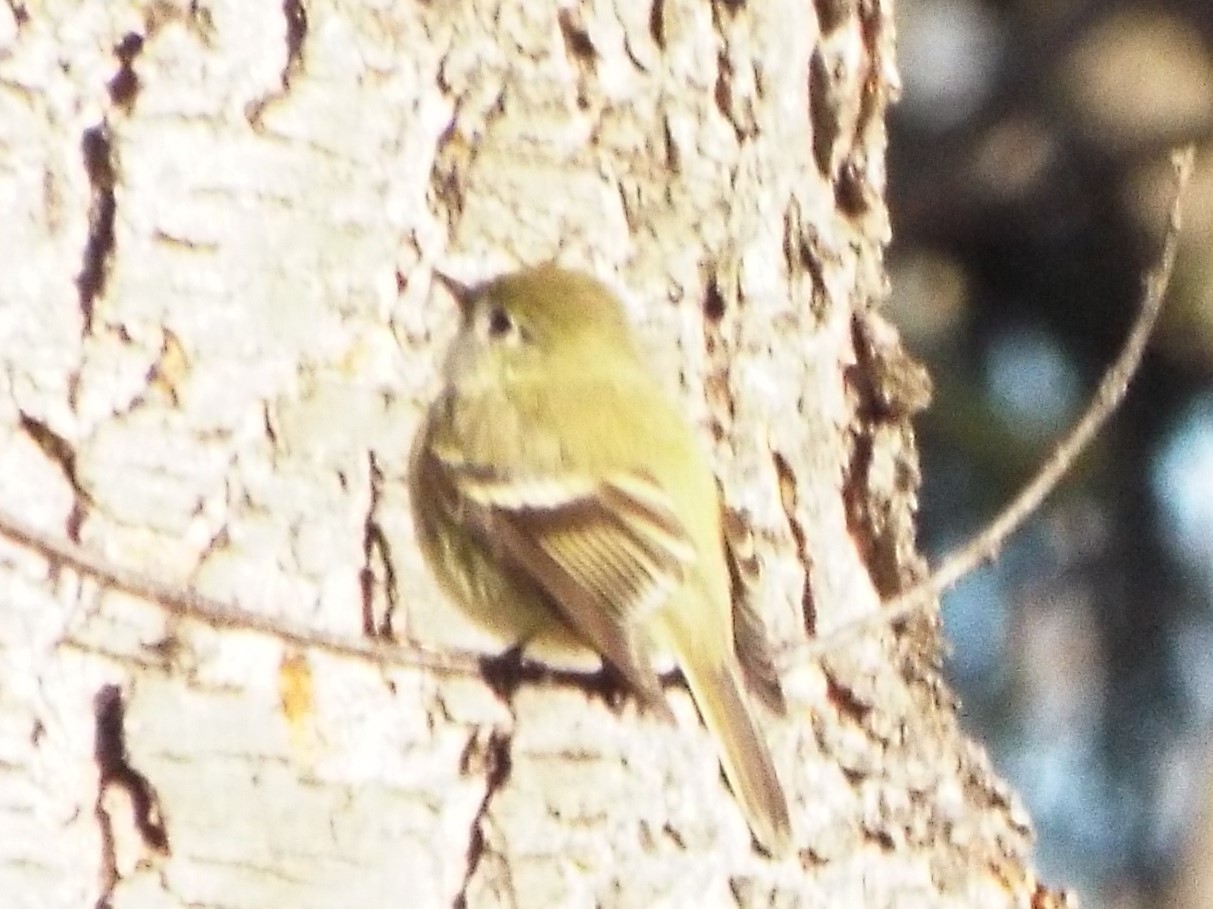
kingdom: Animalia
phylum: Chordata
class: Aves
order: Passeriformes
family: Tyrannidae
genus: Empidonax
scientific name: Empidonax hammondii
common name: Hammond's flycatcher
